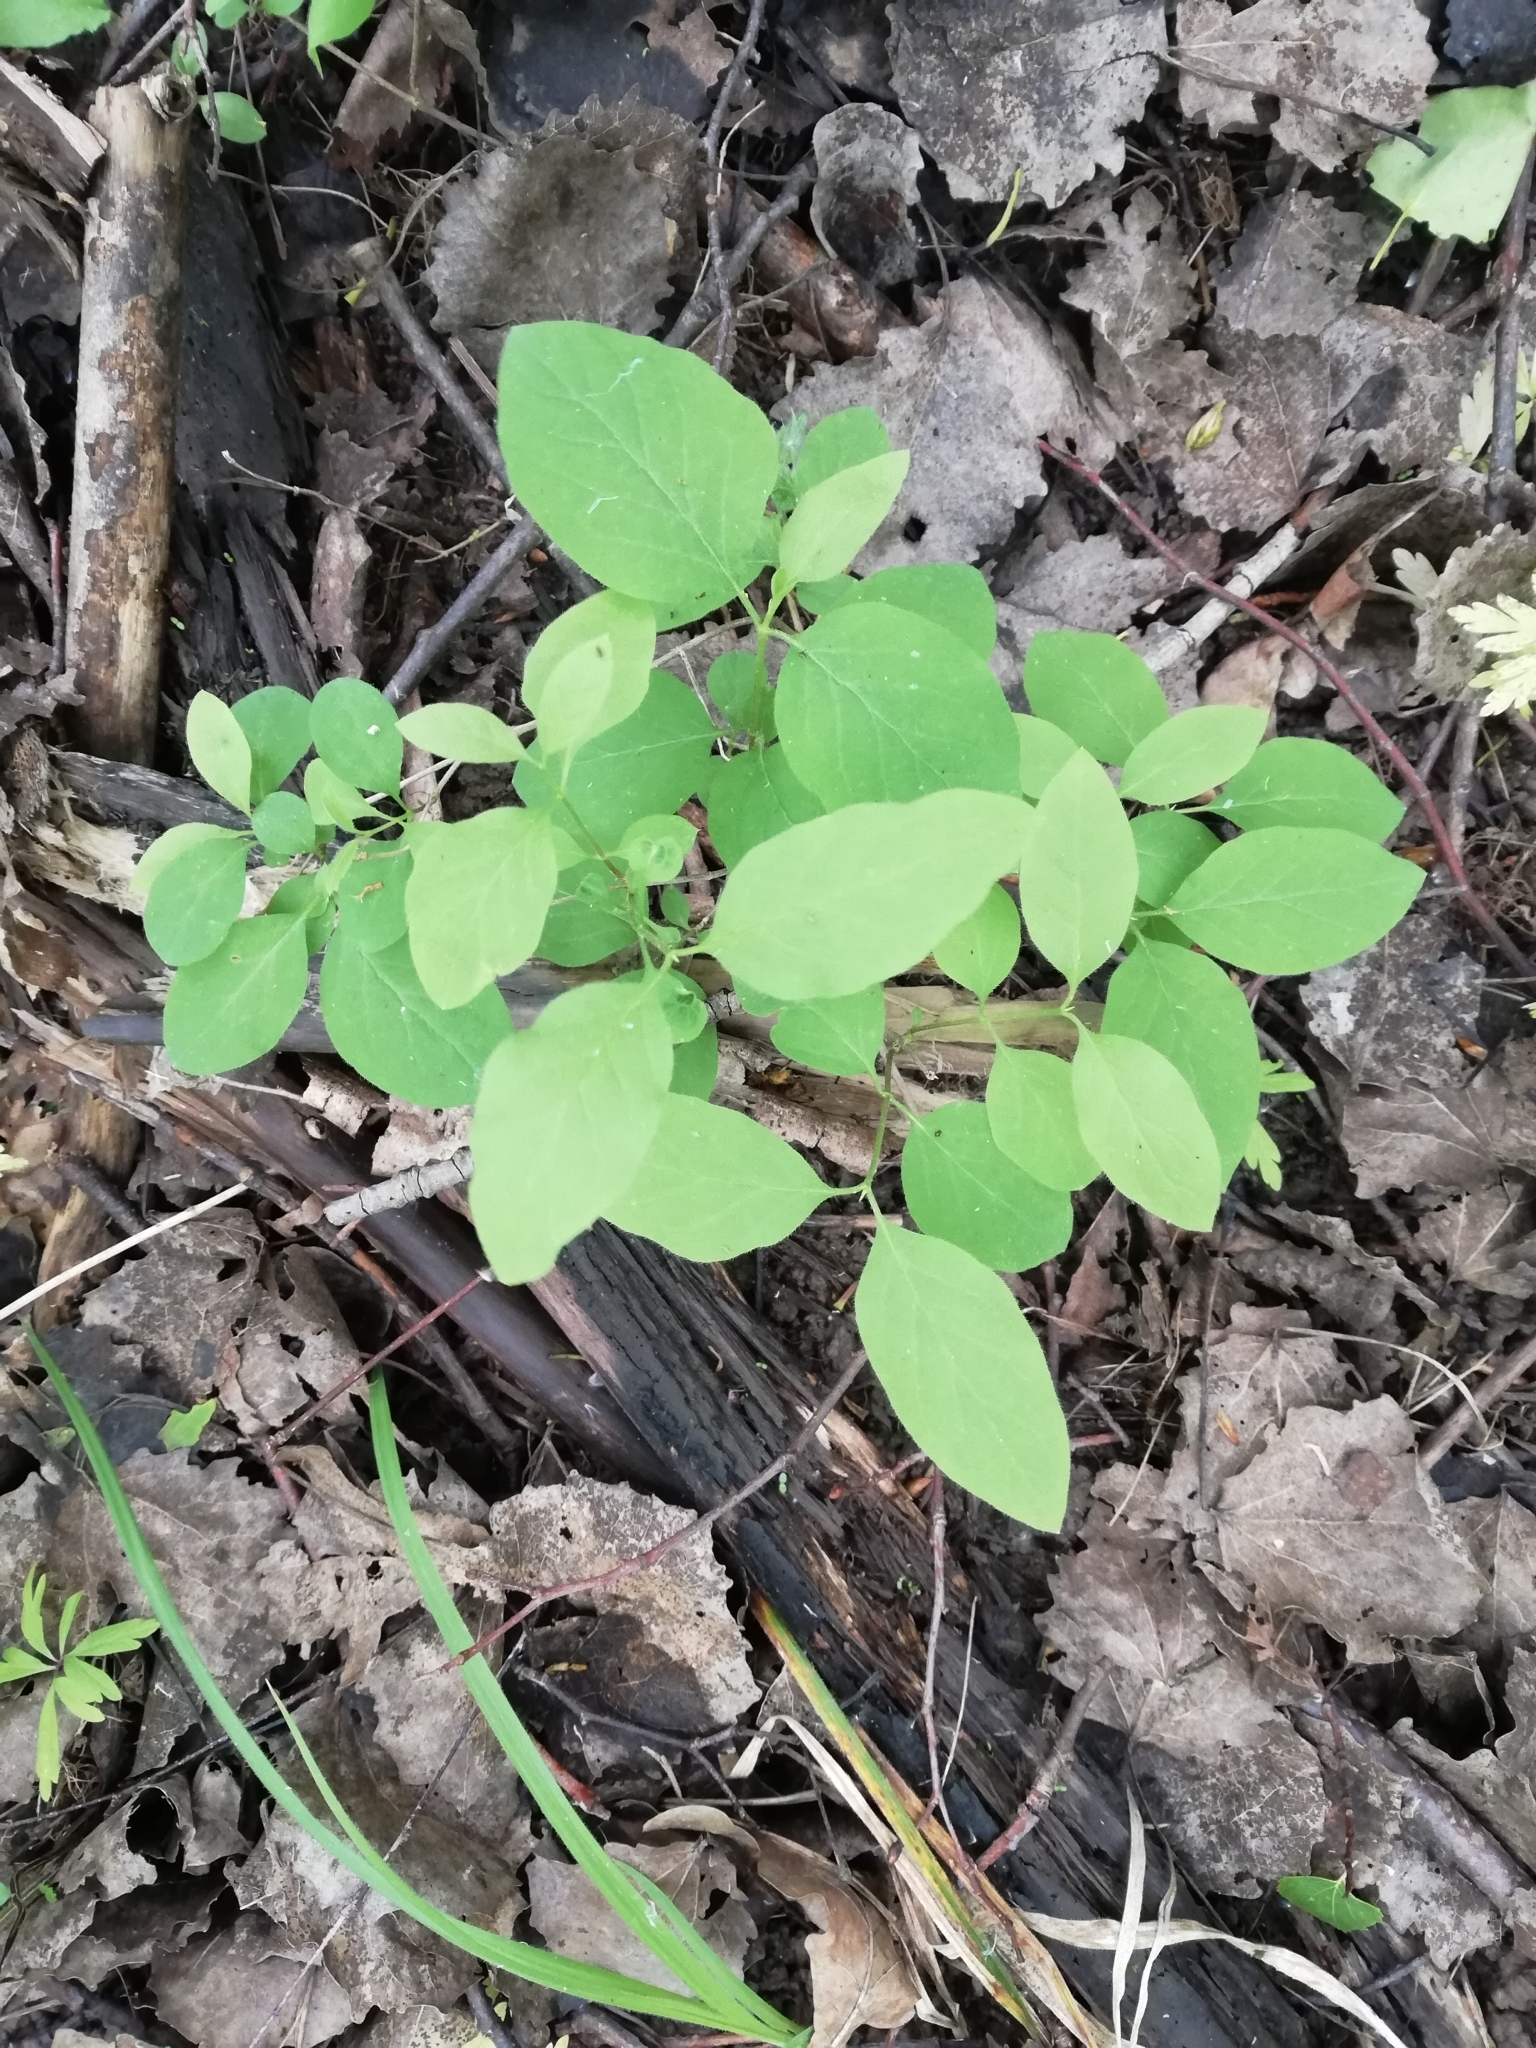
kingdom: Plantae
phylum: Tracheophyta
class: Magnoliopsida
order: Dipsacales
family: Caprifoliaceae
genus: Lonicera
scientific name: Lonicera xylosteum
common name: Fly honeysuckle
